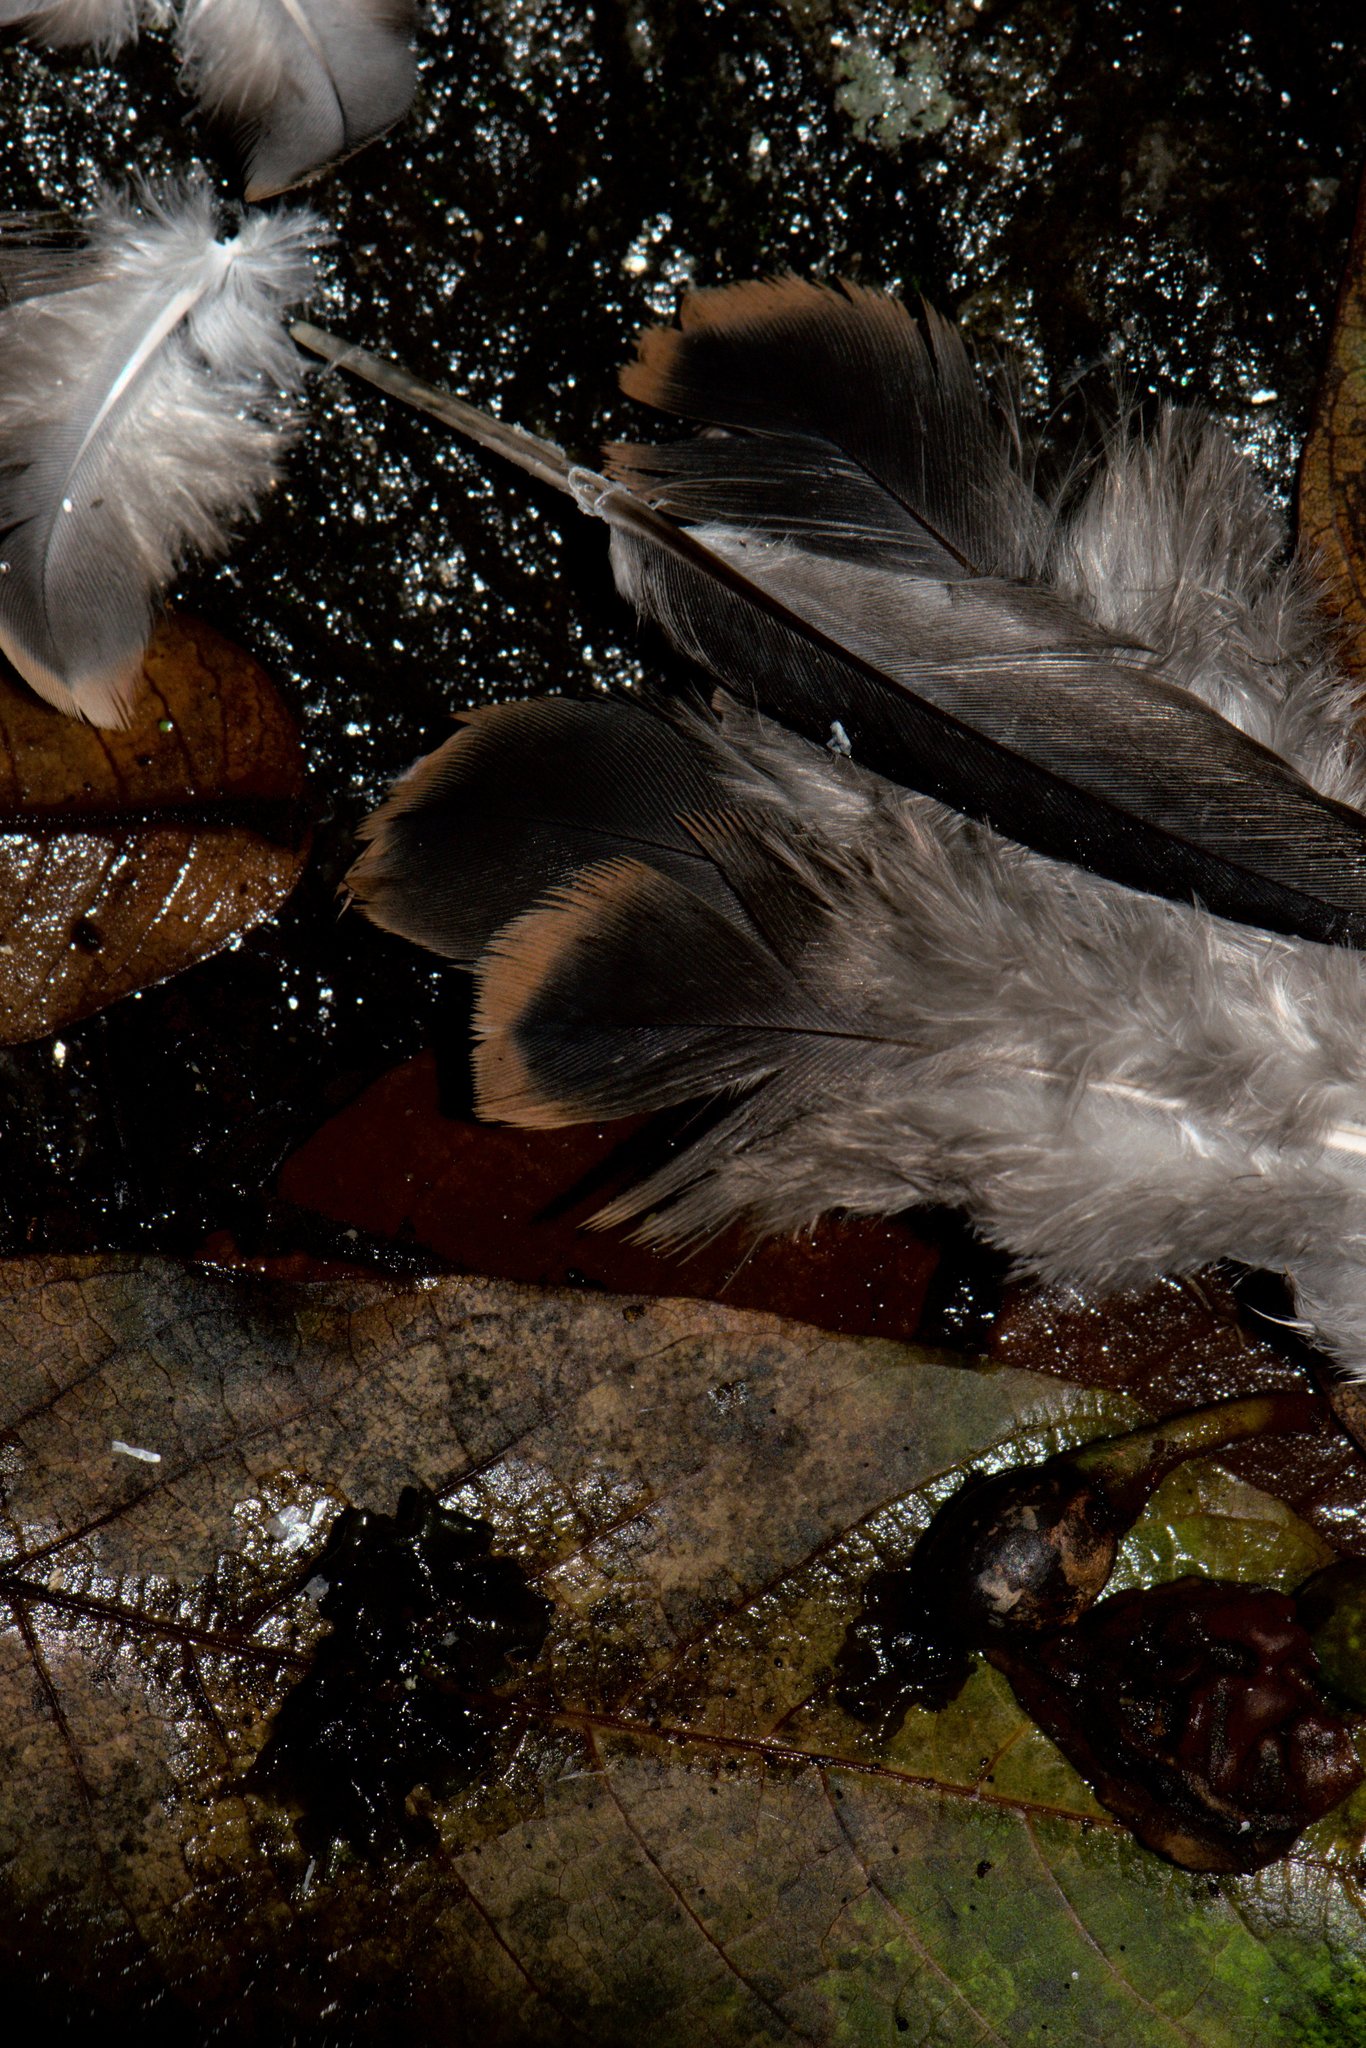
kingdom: Animalia
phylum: Chordata
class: Aves
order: Columbiformes
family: Columbidae
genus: Streptopelia
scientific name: Streptopelia orientalis
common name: Oriental turtle dove
